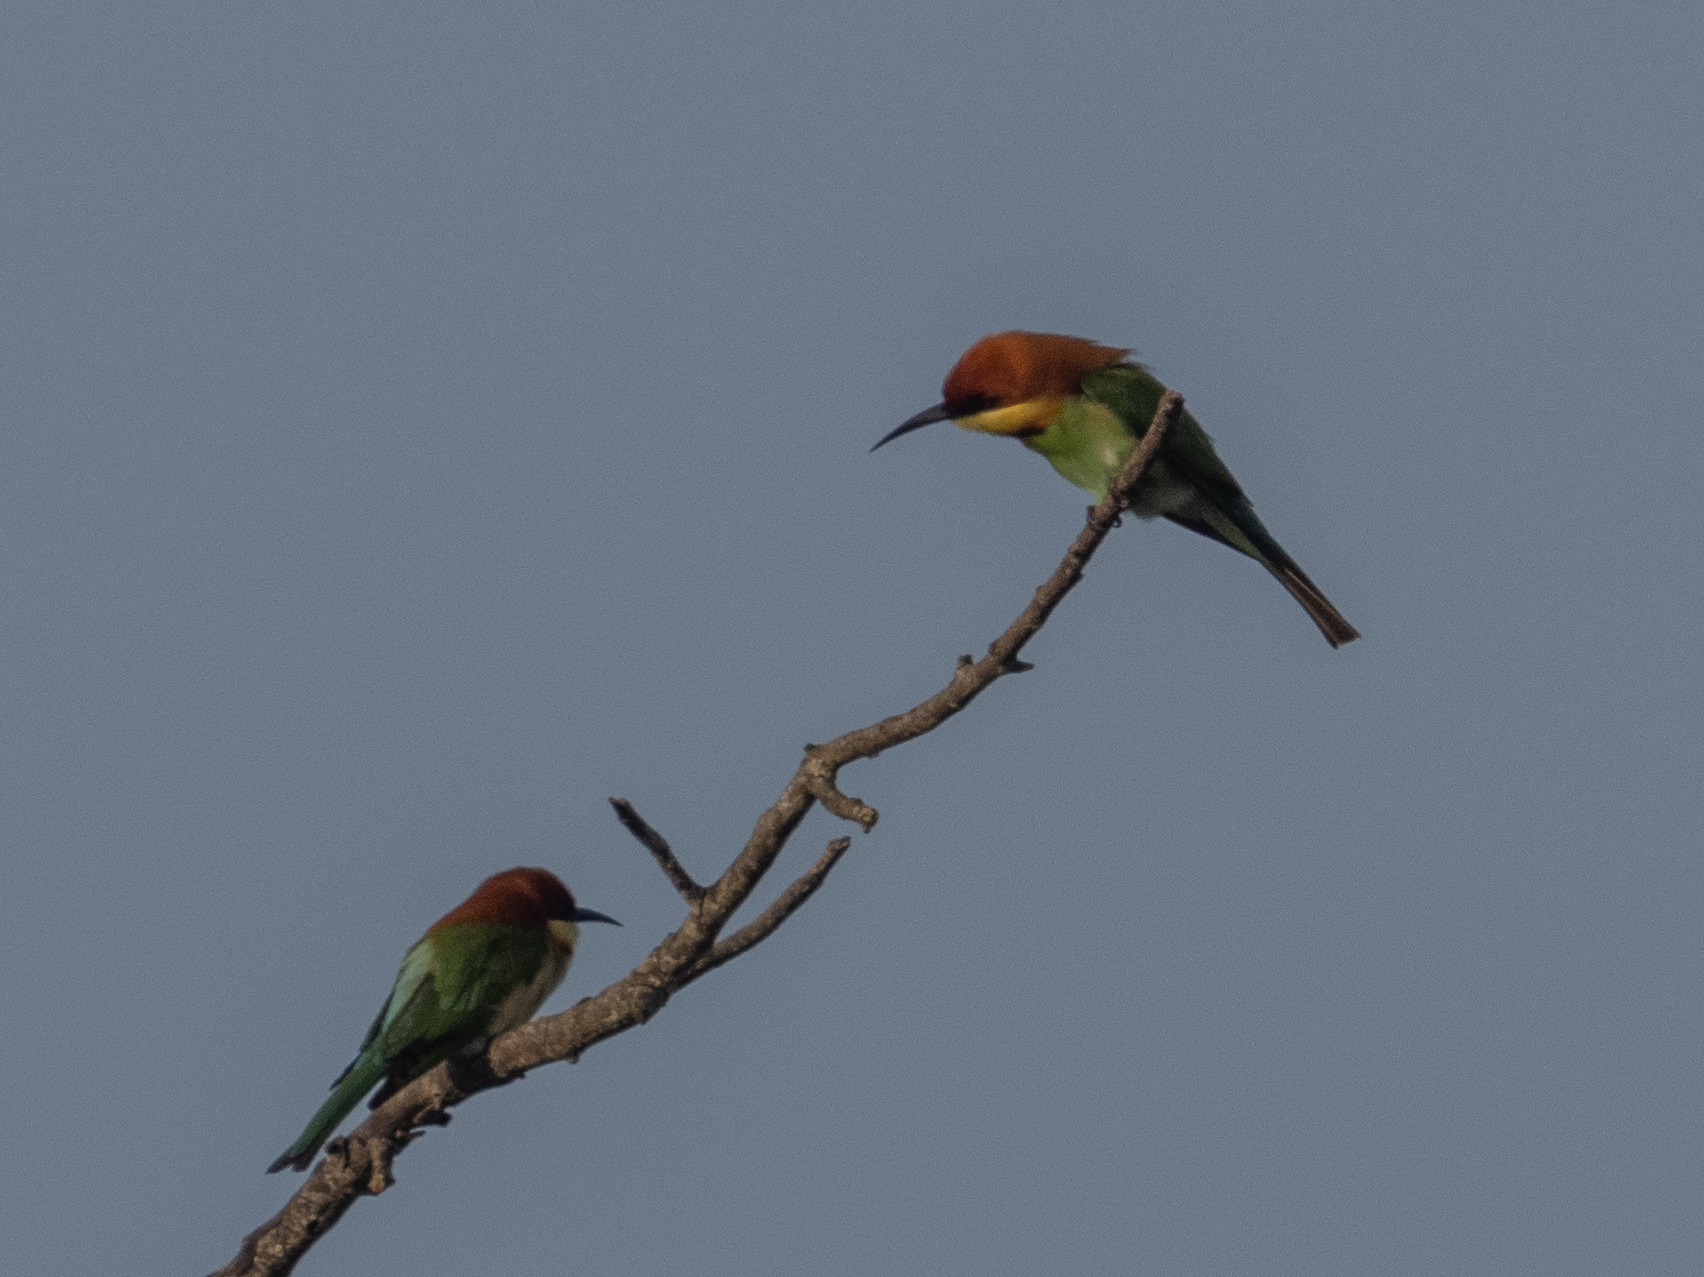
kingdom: Animalia
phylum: Chordata
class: Aves
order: Coraciiformes
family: Meropidae
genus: Merops
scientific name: Merops leschenaulti
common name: Chestnut-headed bee-eater
